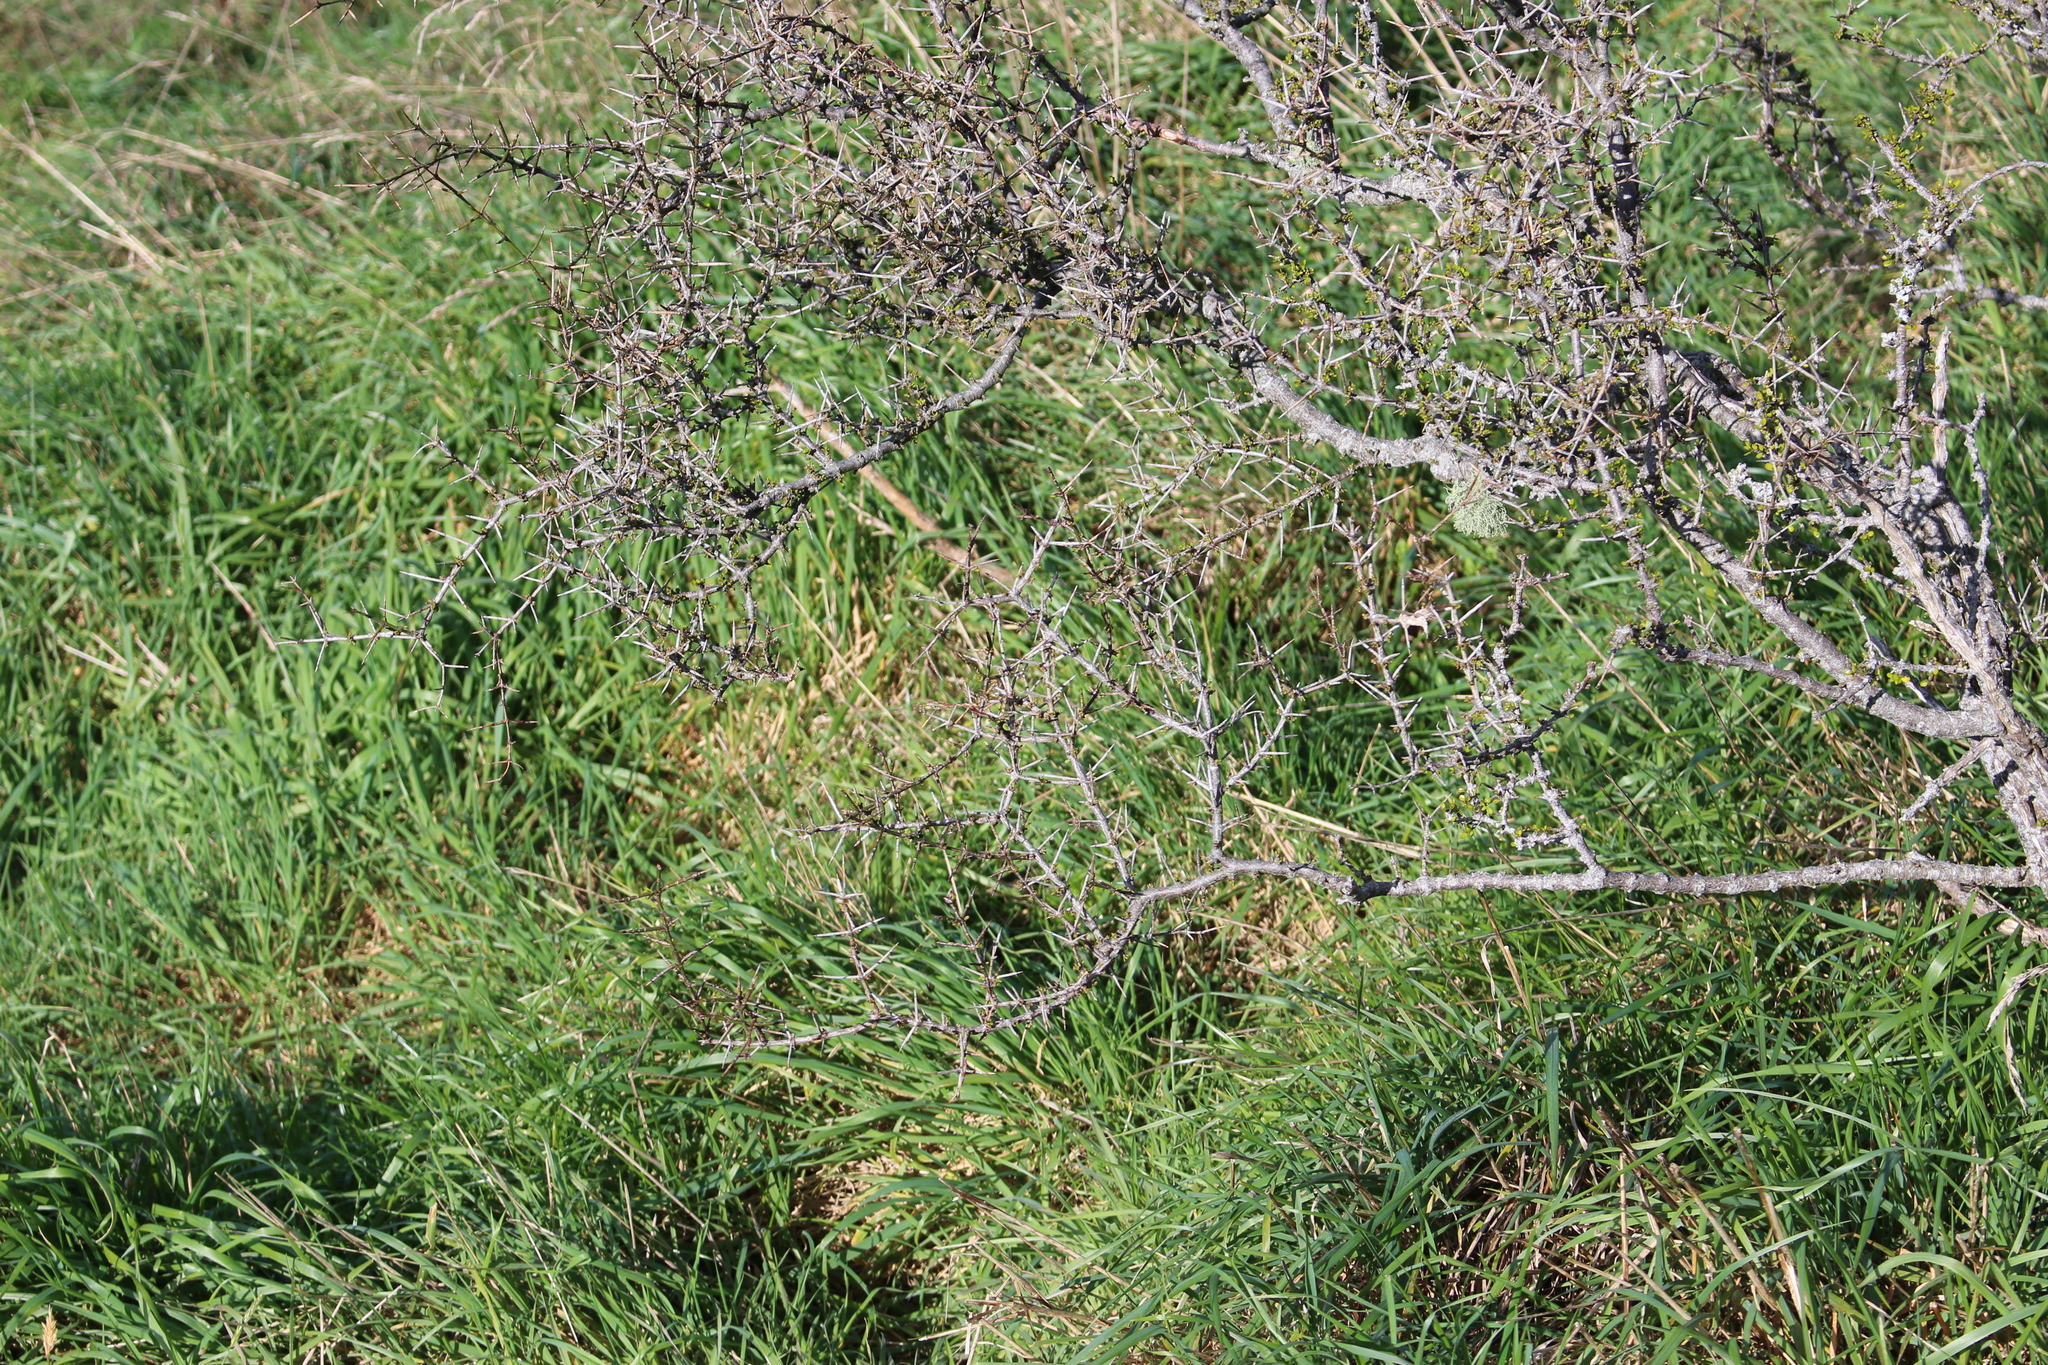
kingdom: Plantae
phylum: Tracheophyta
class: Magnoliopsida
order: Rosales
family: Rhamnaceae
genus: Discaria
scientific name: Discaria toumatou
